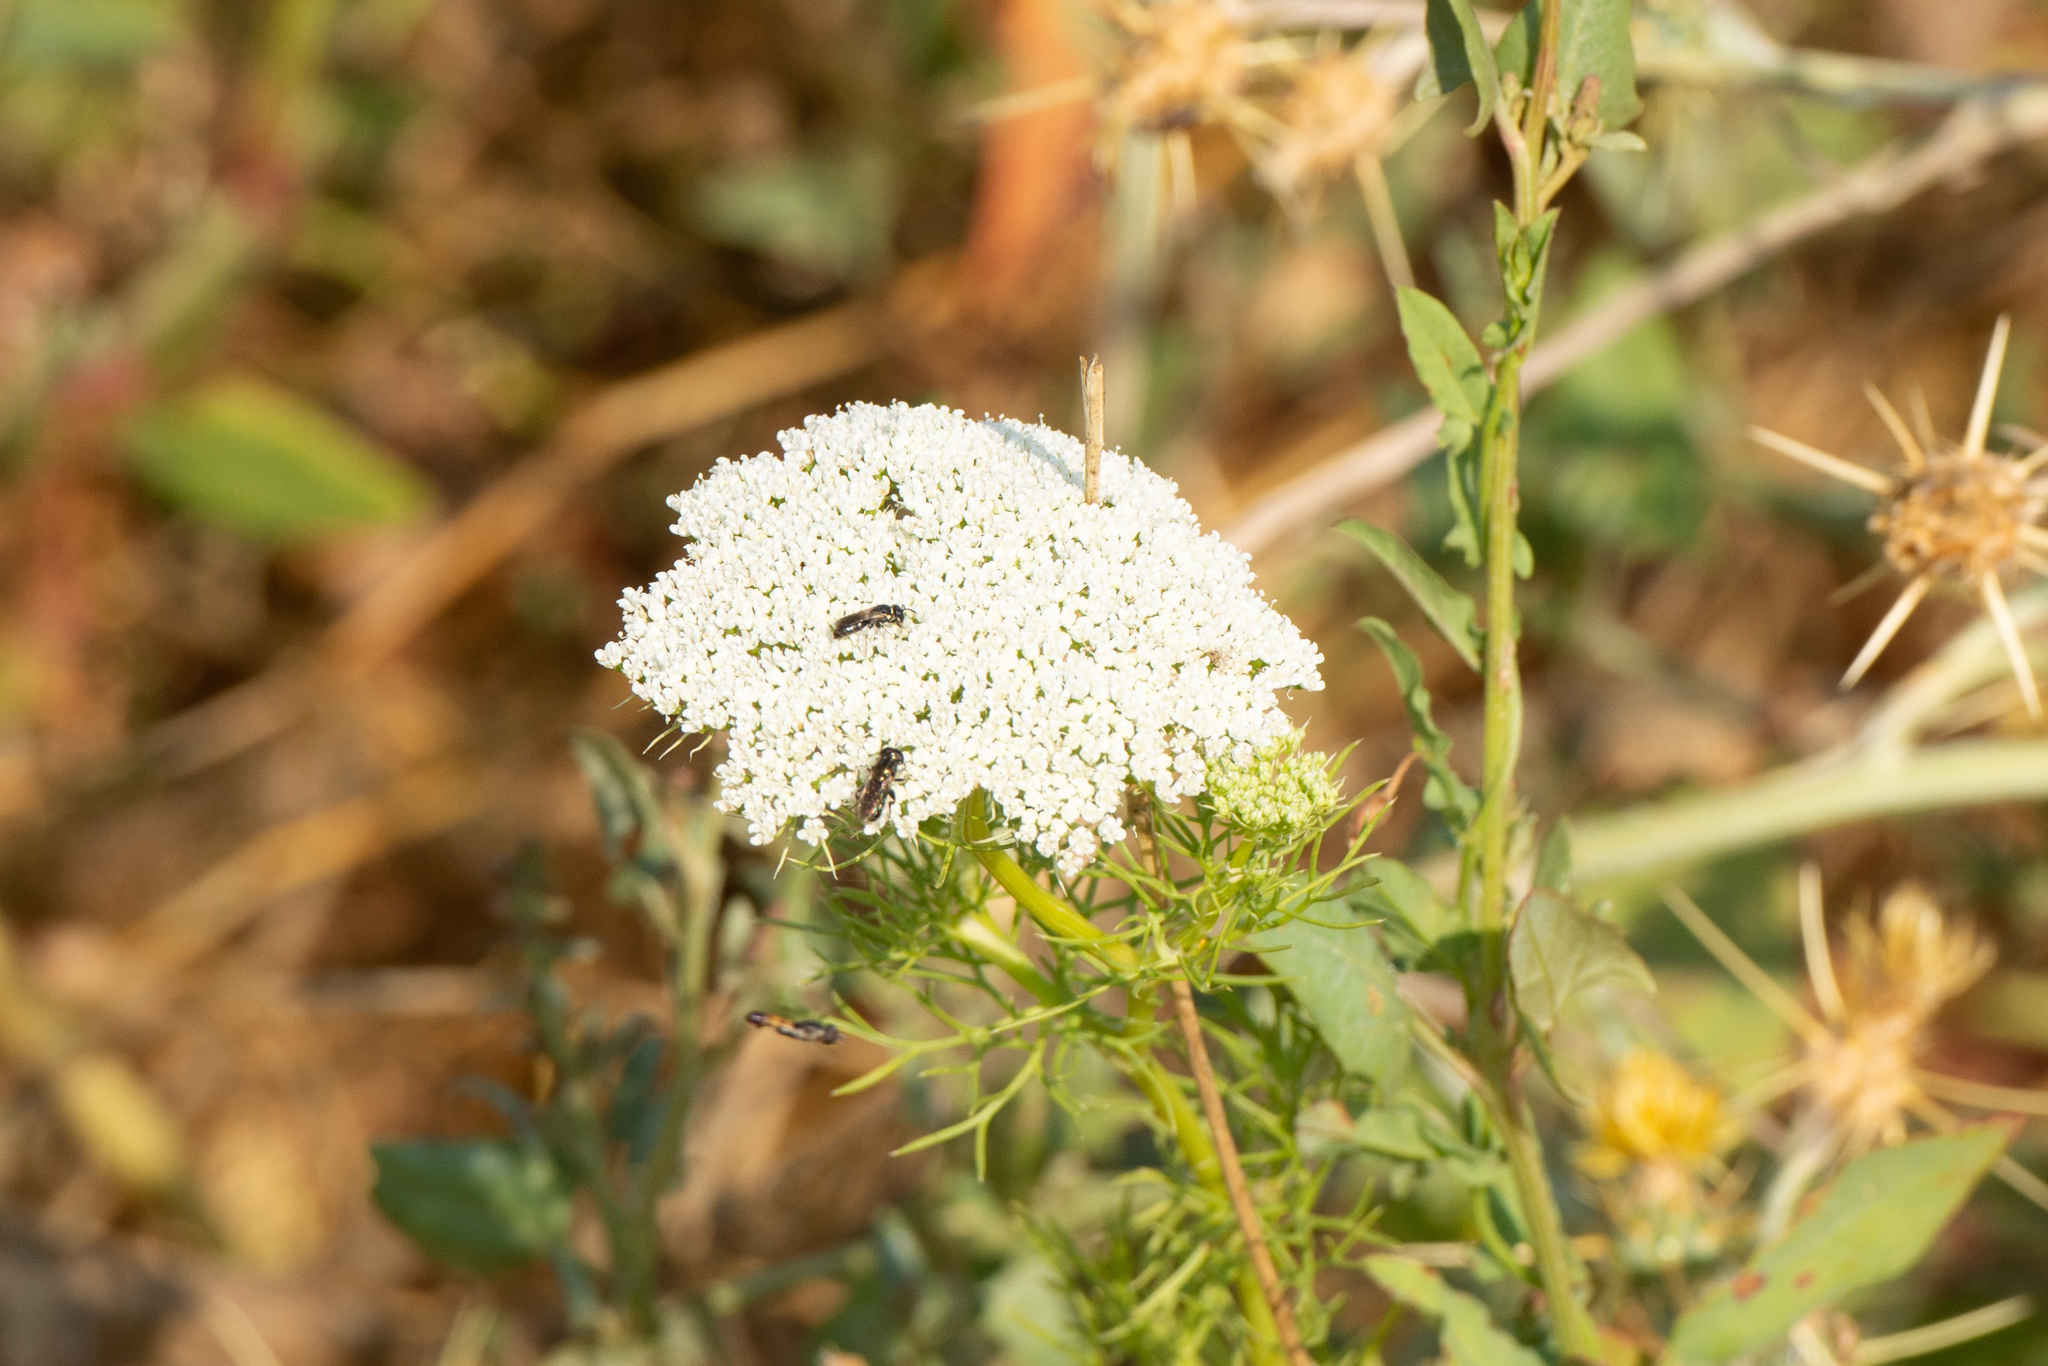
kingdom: Plantae
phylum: Tracheophyta
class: Magnoliopsida
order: Apiales
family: Apiaceae
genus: Visnaga
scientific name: Visnaga daucoides
